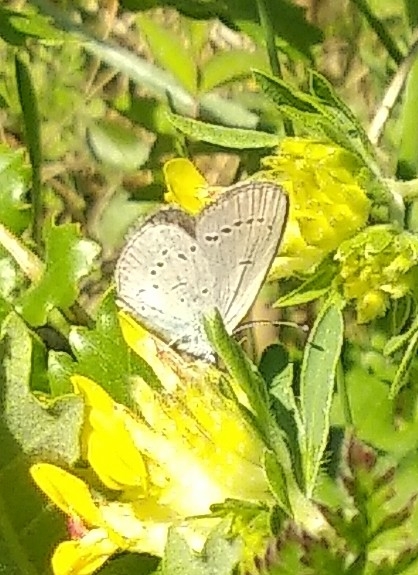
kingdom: Animalia
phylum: Arthropoda
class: Insecta
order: Lepidoptera
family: Lycaenidae
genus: Cupido
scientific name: Cupido minimus
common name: Small blue
